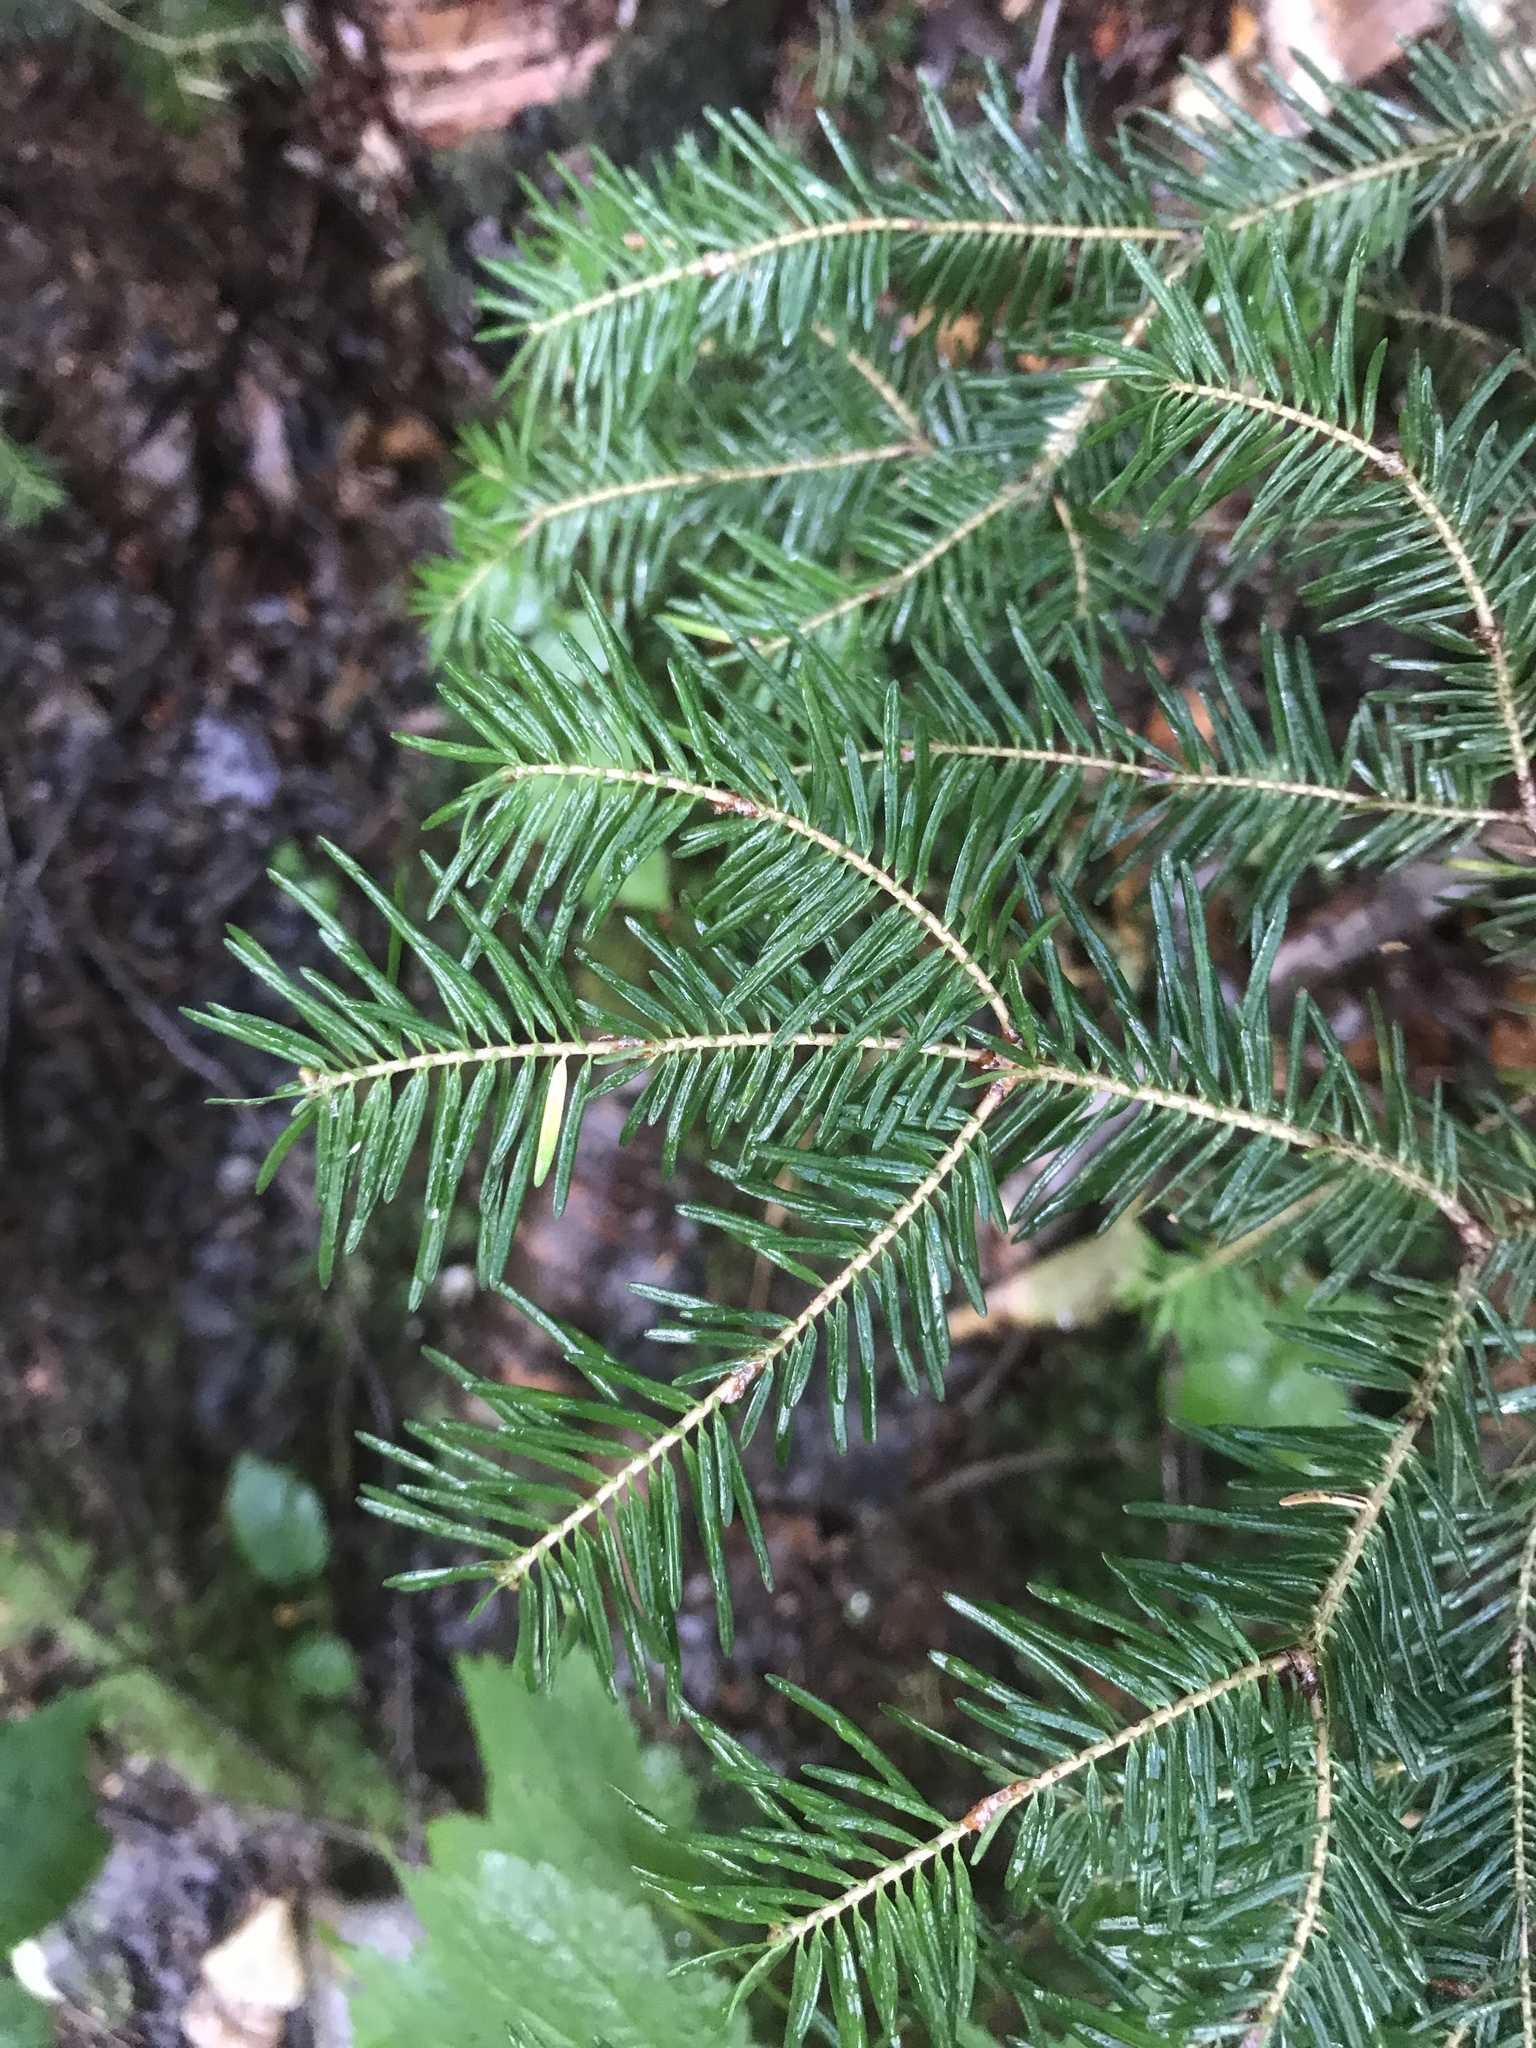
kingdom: Plantae
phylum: Tracheophyta
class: Pinopsida
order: Pinales
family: Pinaceae
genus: Abies
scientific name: Abies balsamea
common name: Balsam fir
